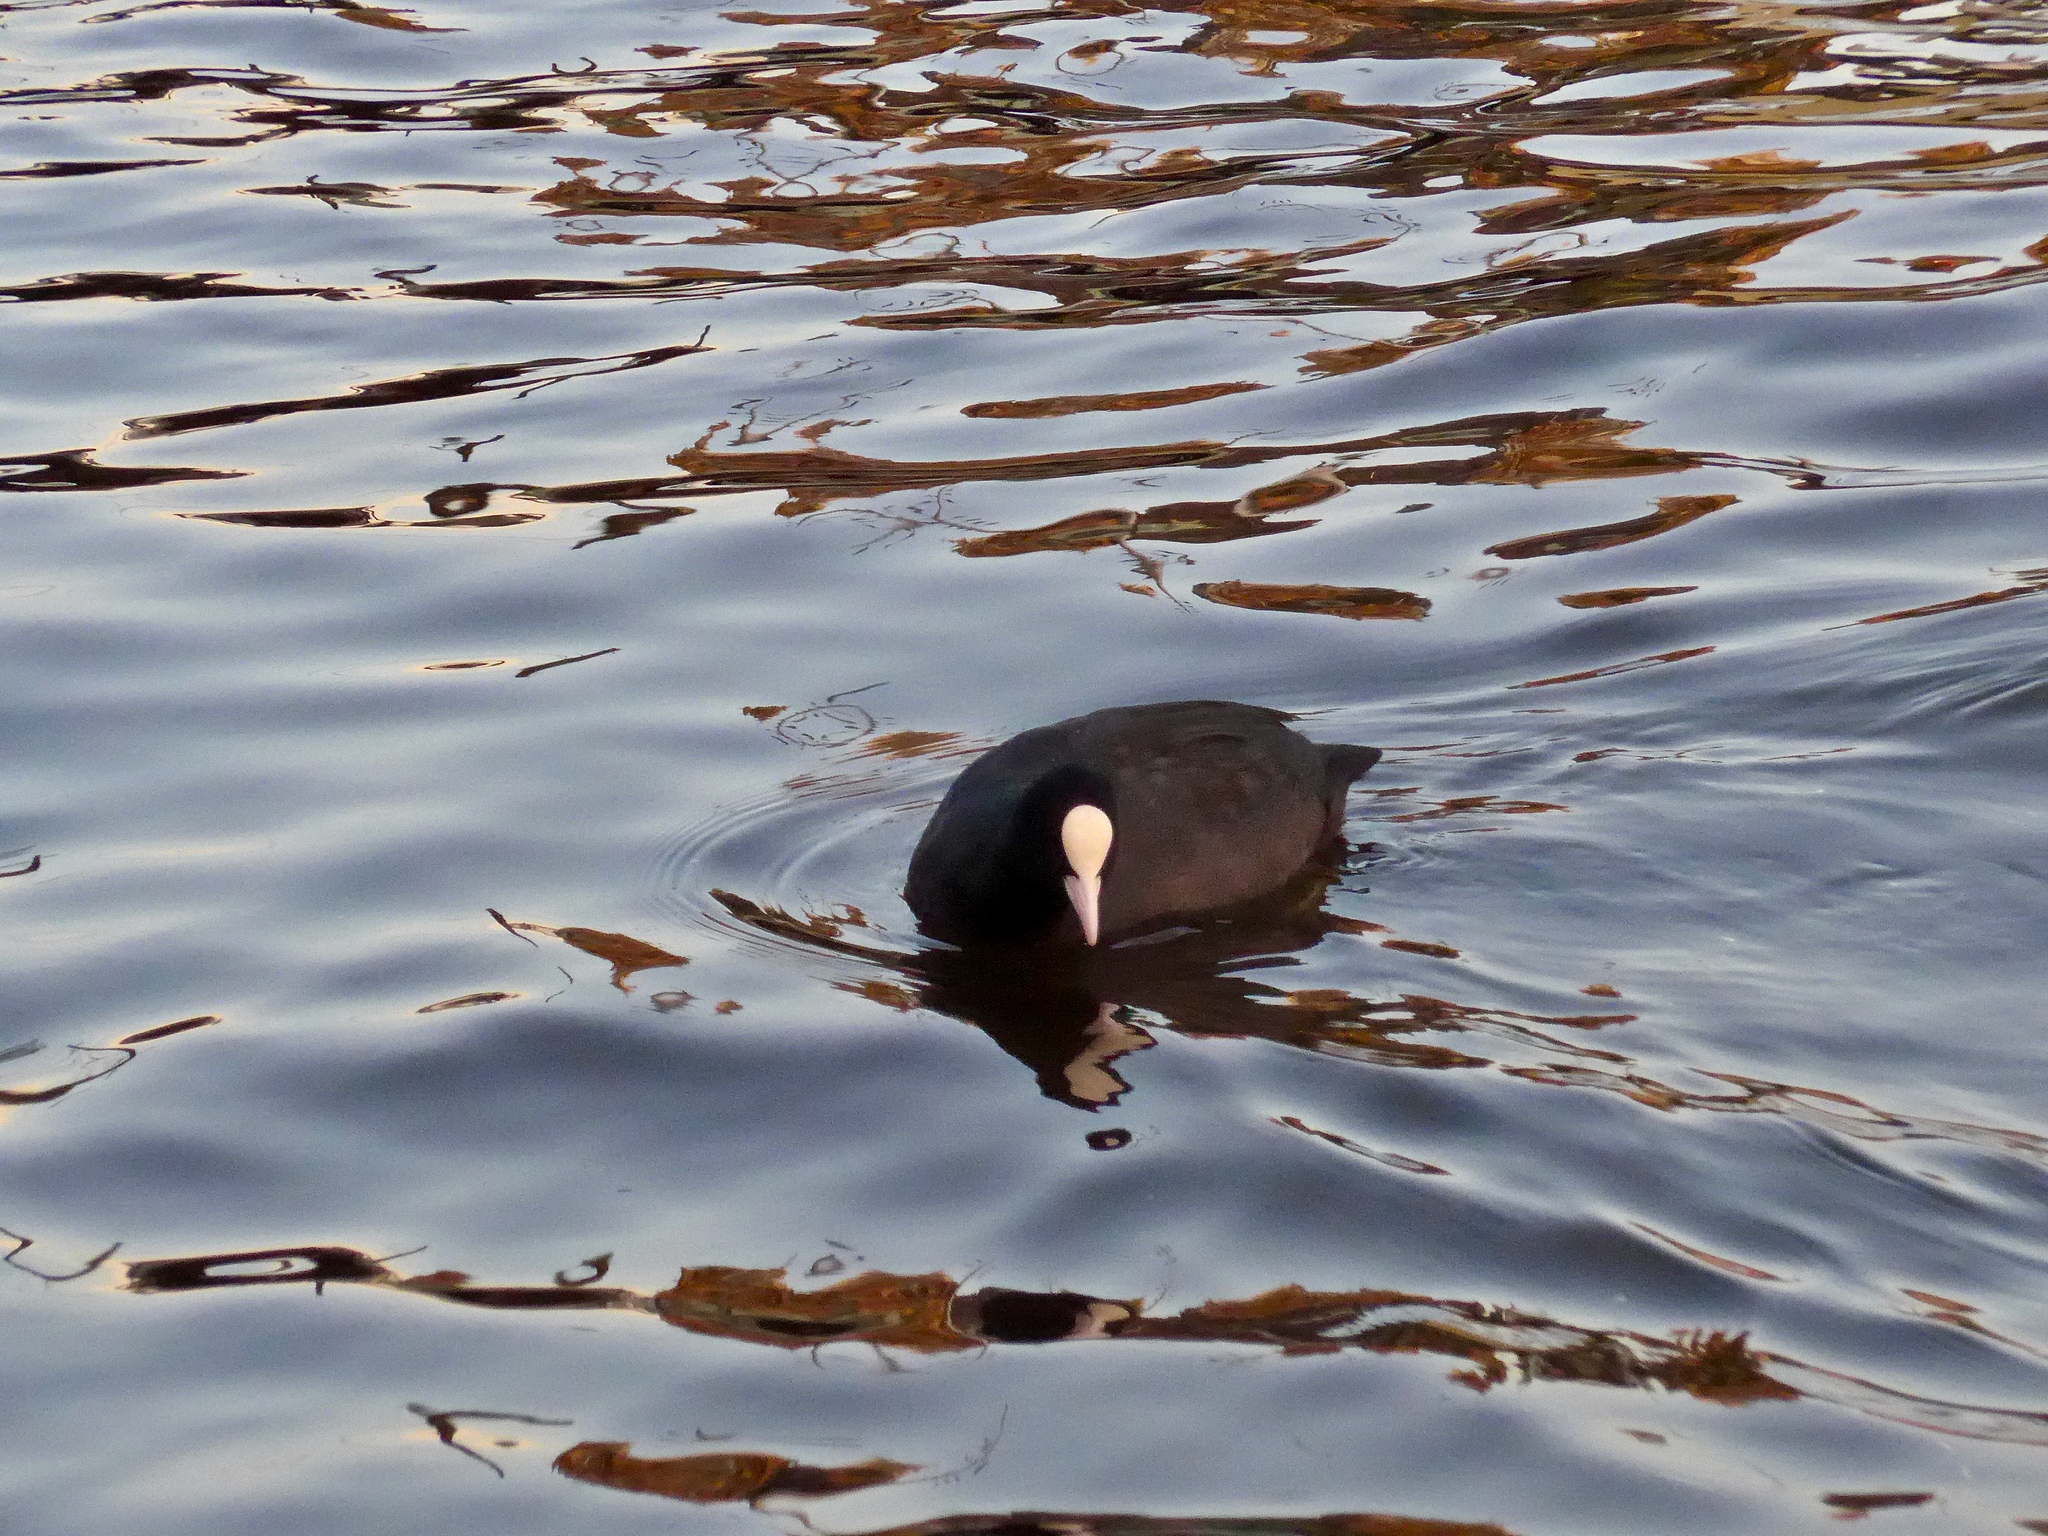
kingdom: Animalia
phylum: Chordata
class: Aves
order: Gruiformes
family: Rallidae
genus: Fulica
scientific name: Fulica atra
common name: Eurasian coot
